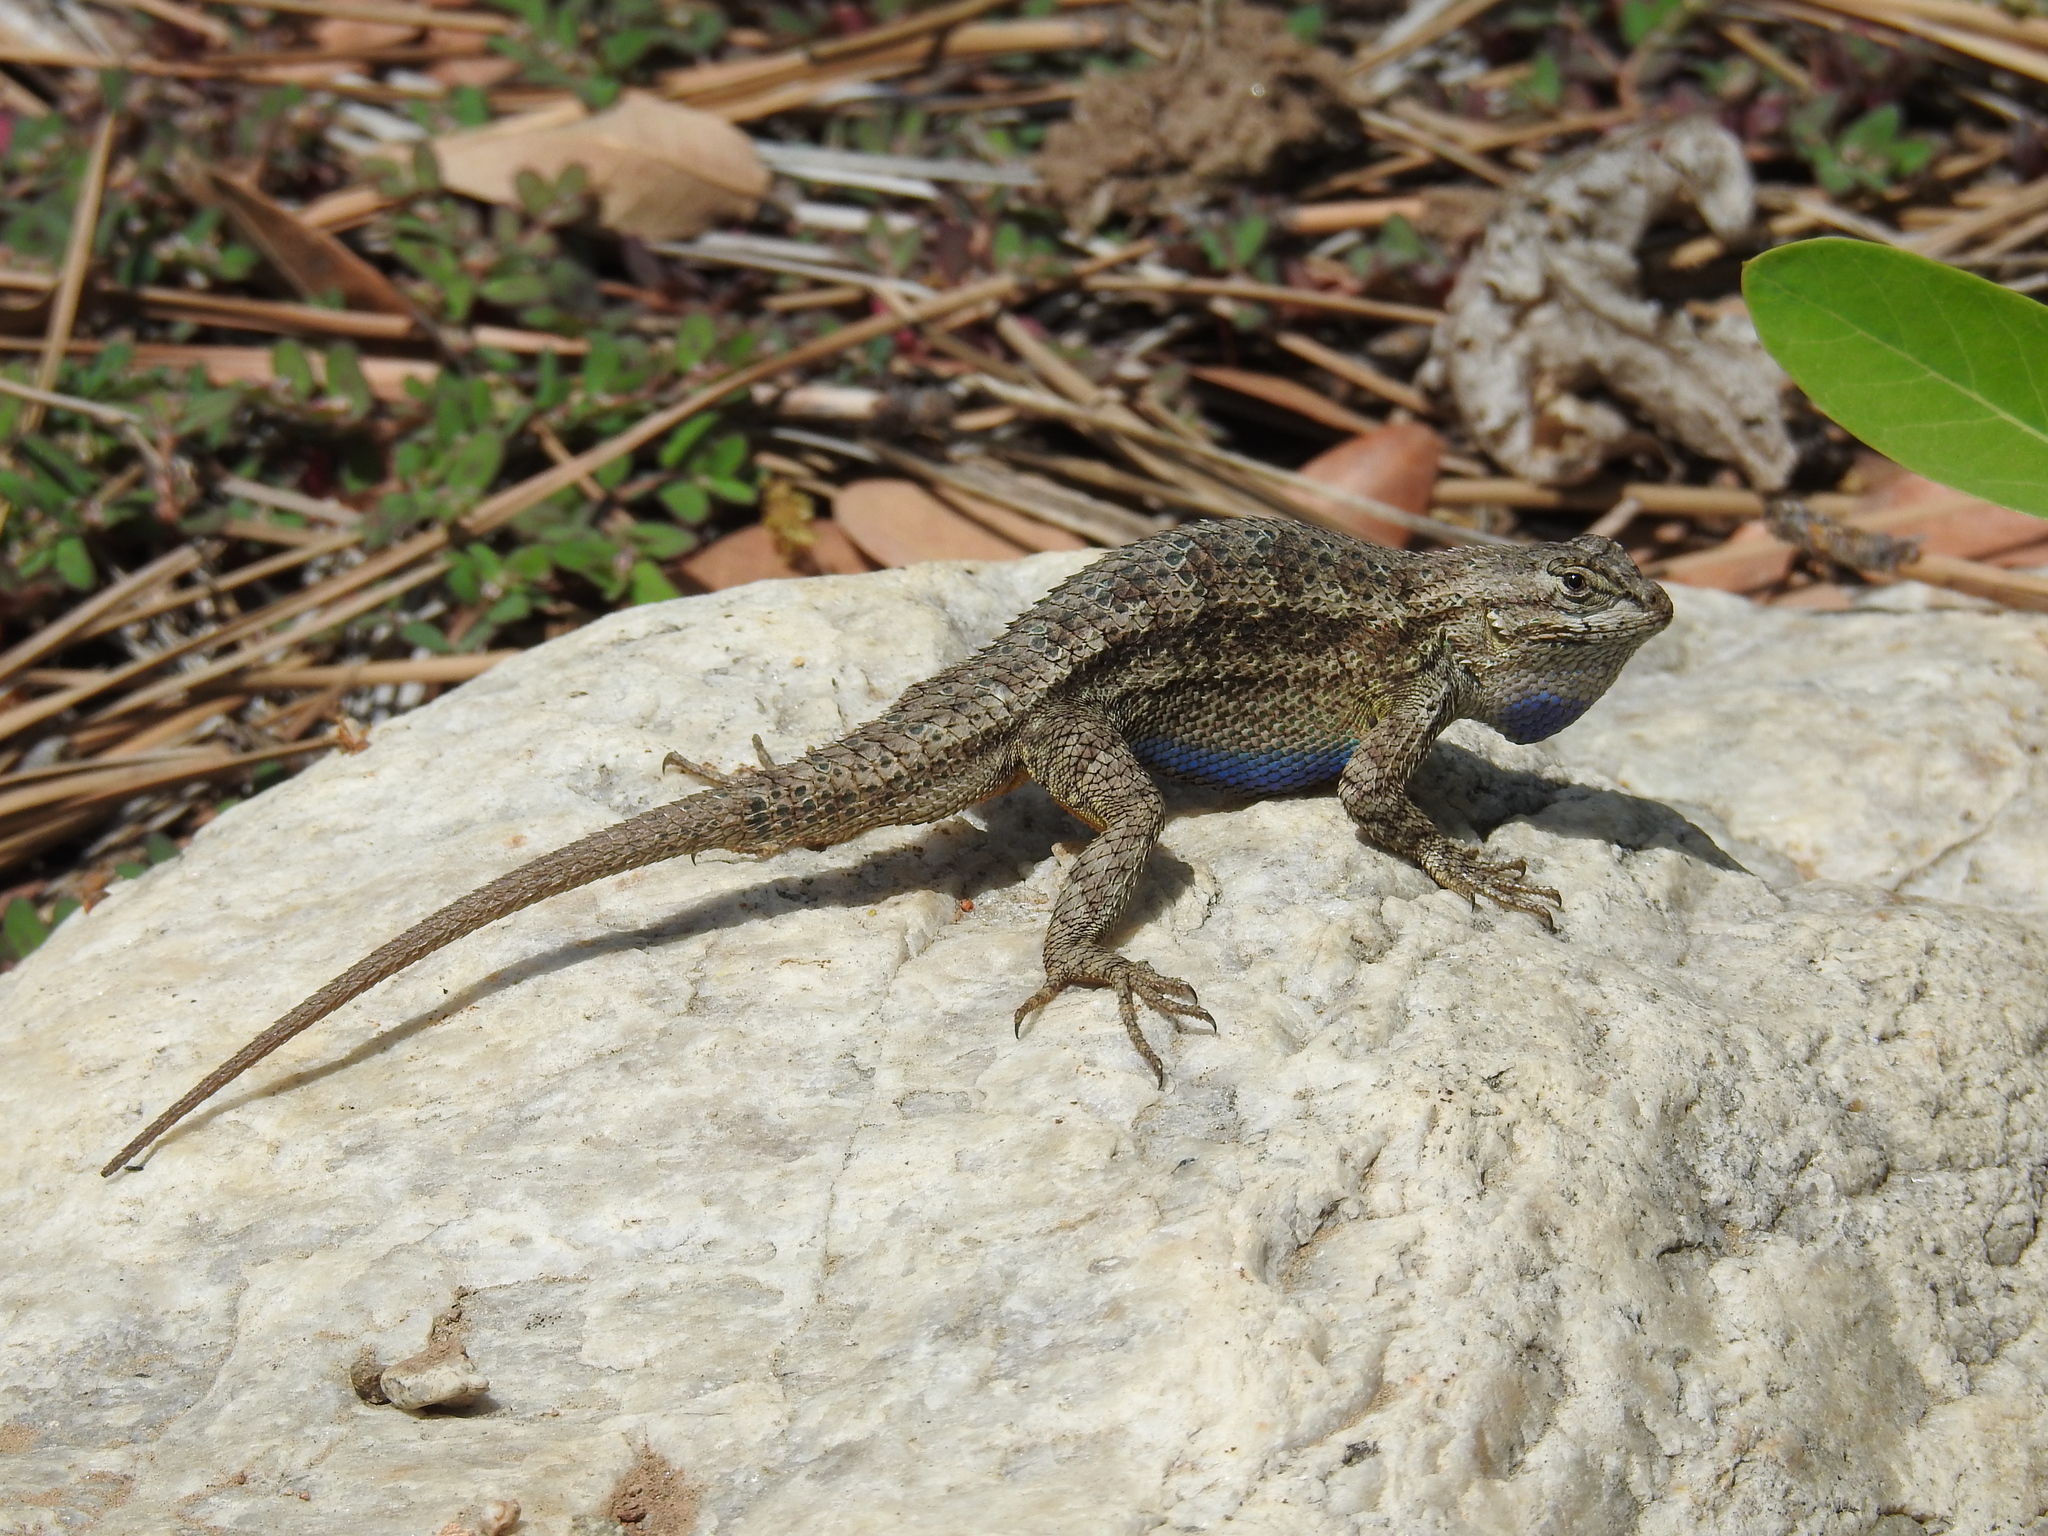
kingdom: Animalia
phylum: Chordata
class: Squamata
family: Phrynosomatidae
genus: Sceloporus
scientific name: Sceloporus occidentalis
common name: Western fence lizard
